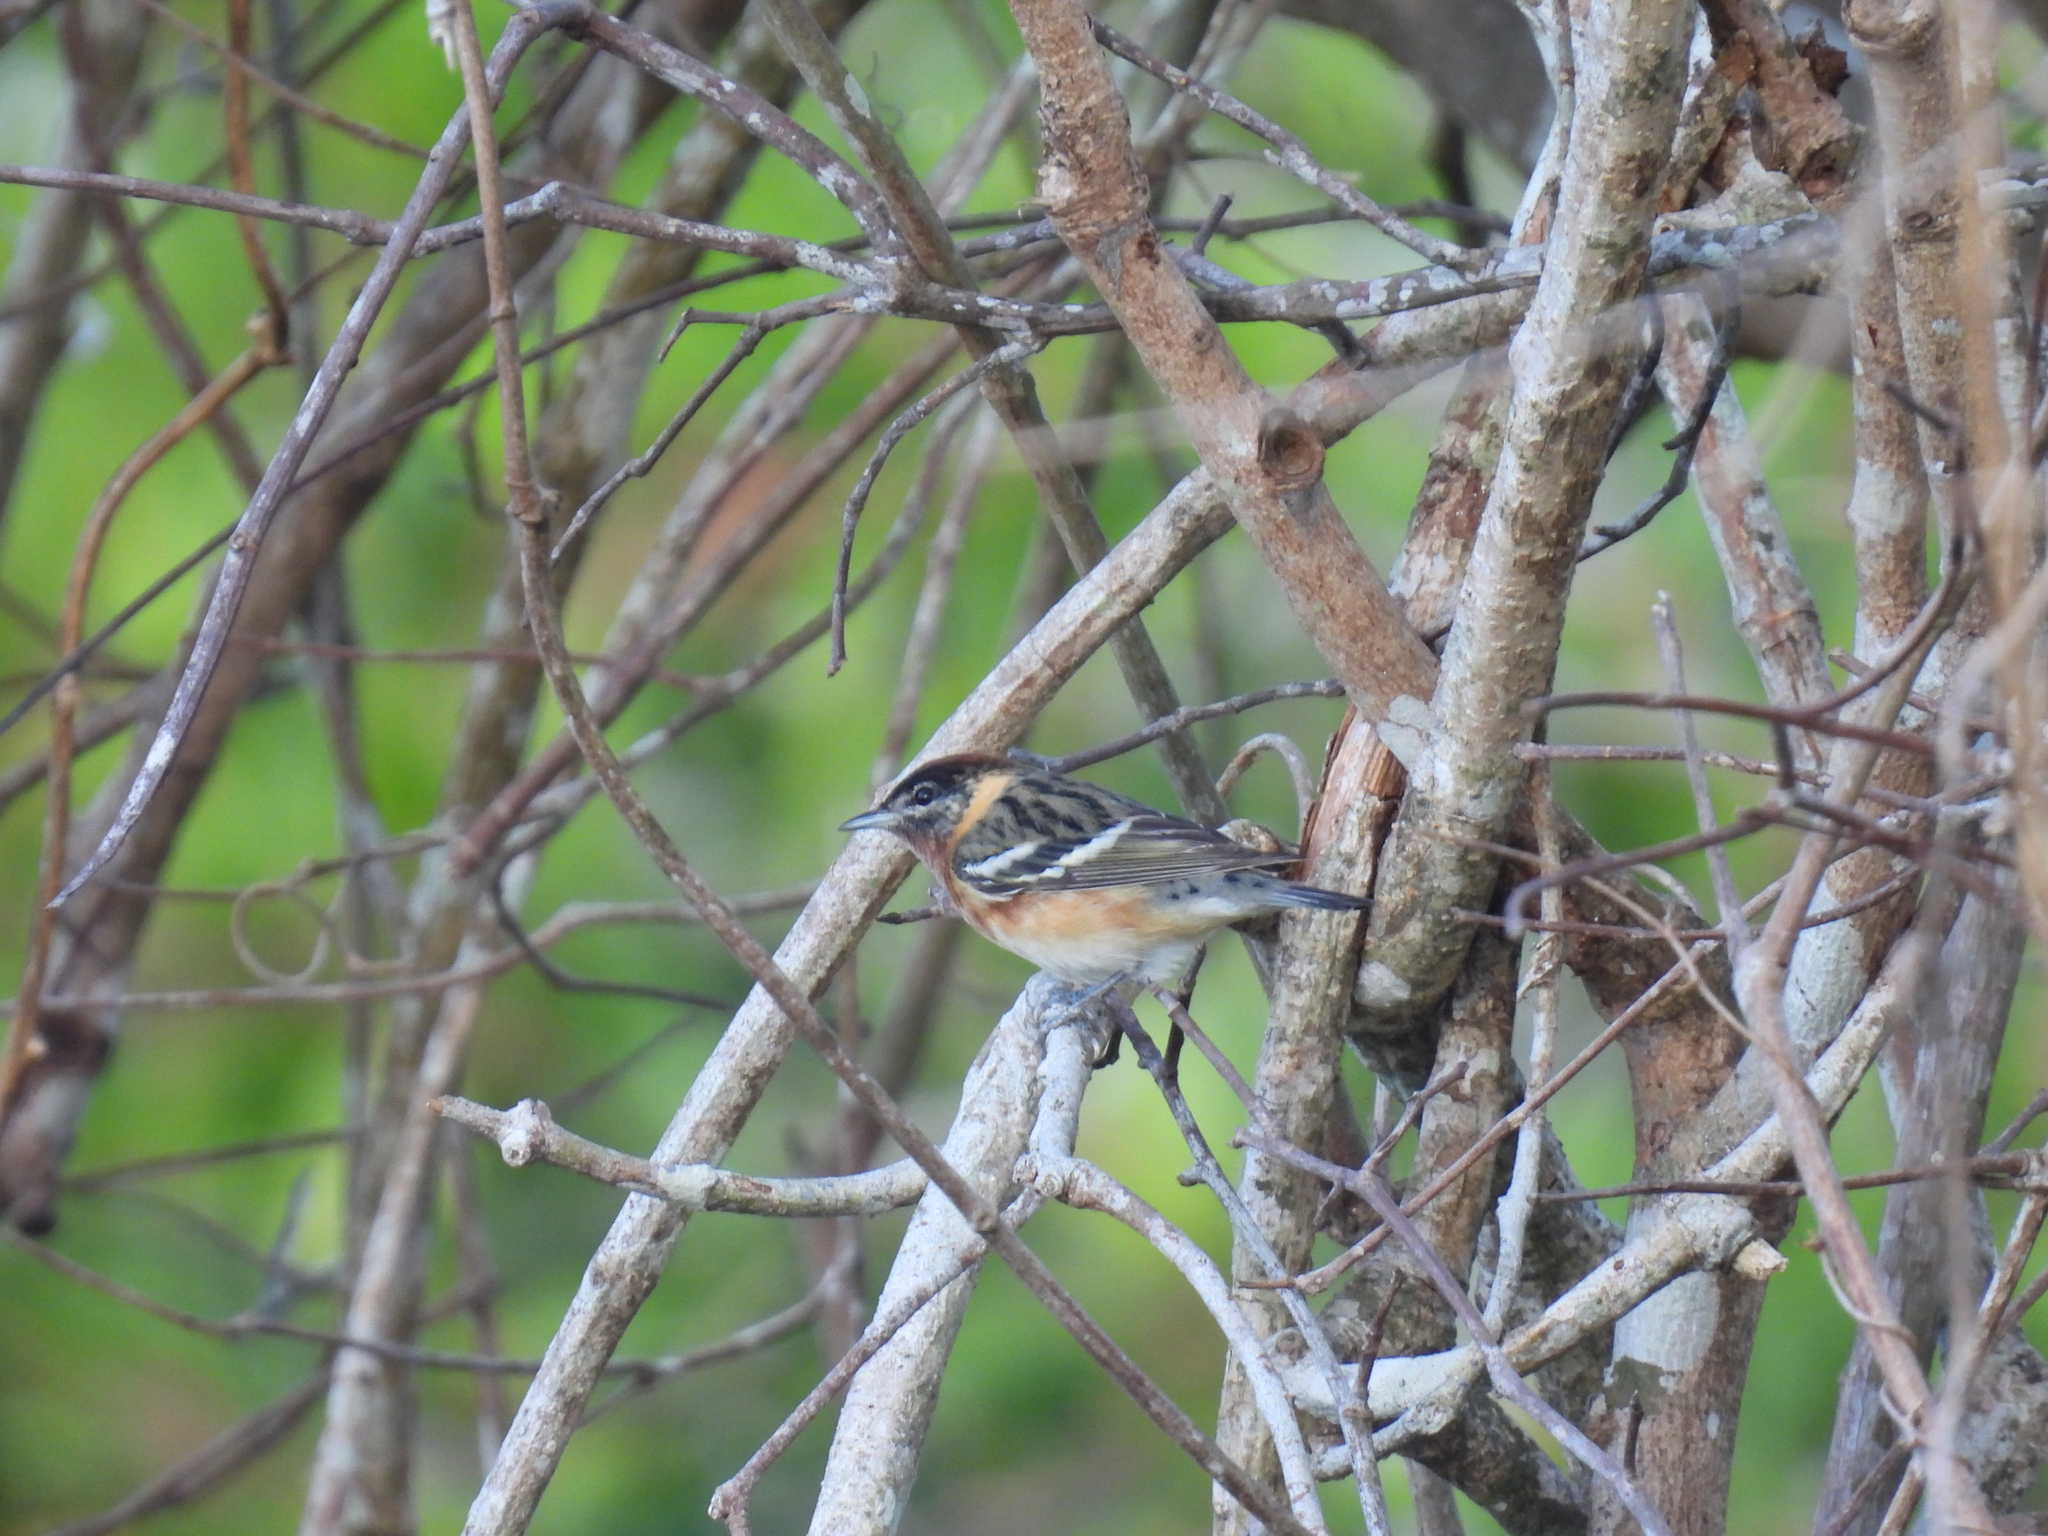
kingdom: Animalia
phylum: Chordata
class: Aves
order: Passeriformes
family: Parulidae
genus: Setophaga
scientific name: Setophaga castanea
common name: Bay-breasted warbler
